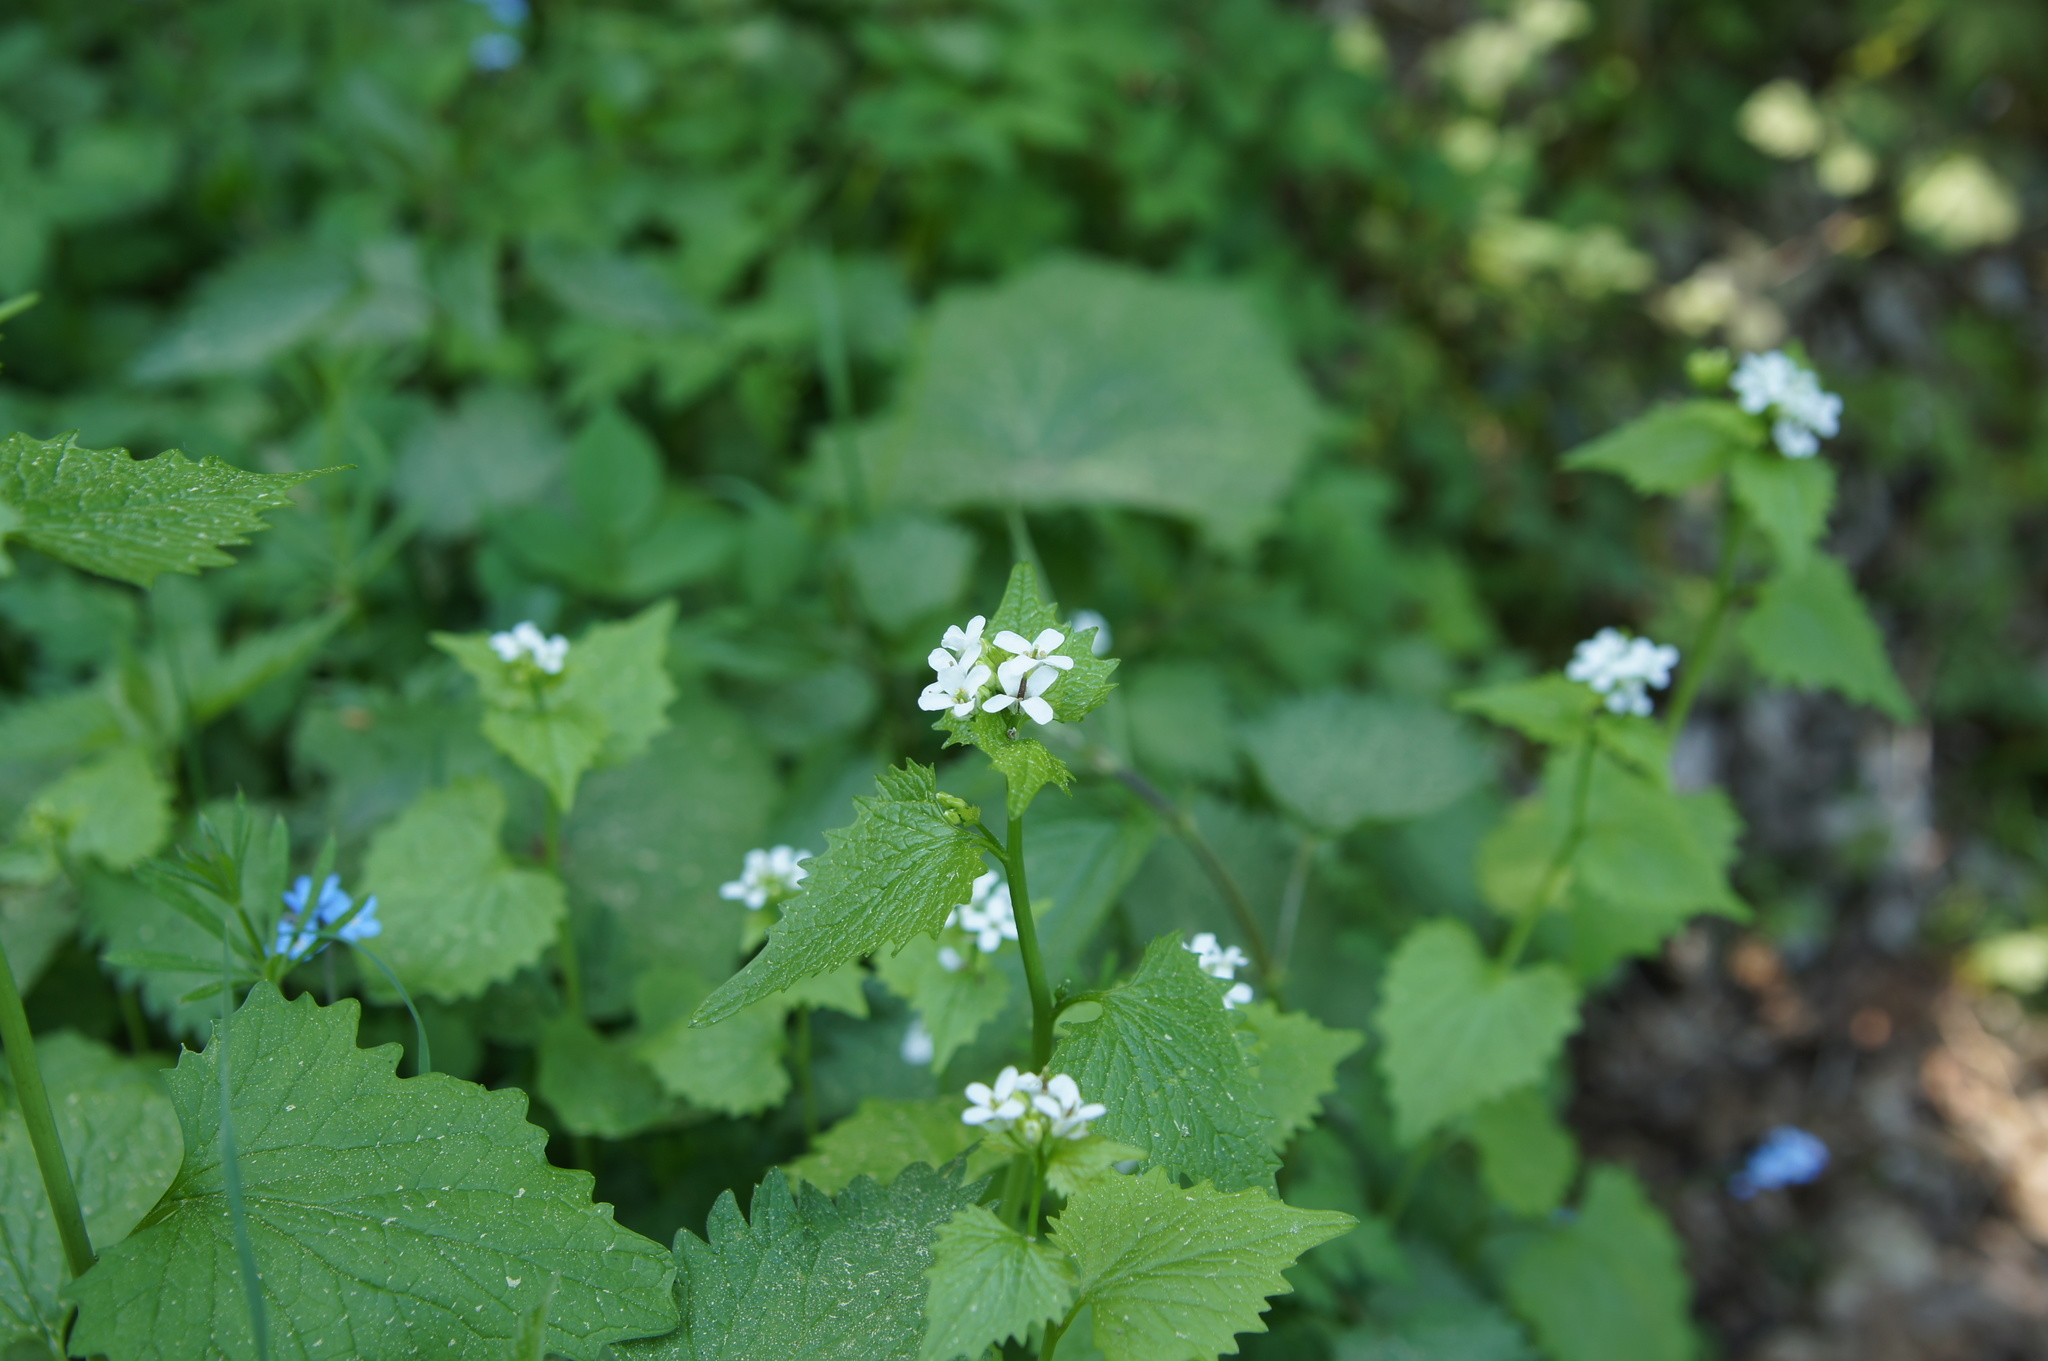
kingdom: Plantae
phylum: Tracheophyta
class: Magnoliopsida
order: Brassicales
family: Brassicaceae
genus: Alliaria
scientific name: Alliaria petiolata
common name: Garlic mustard
